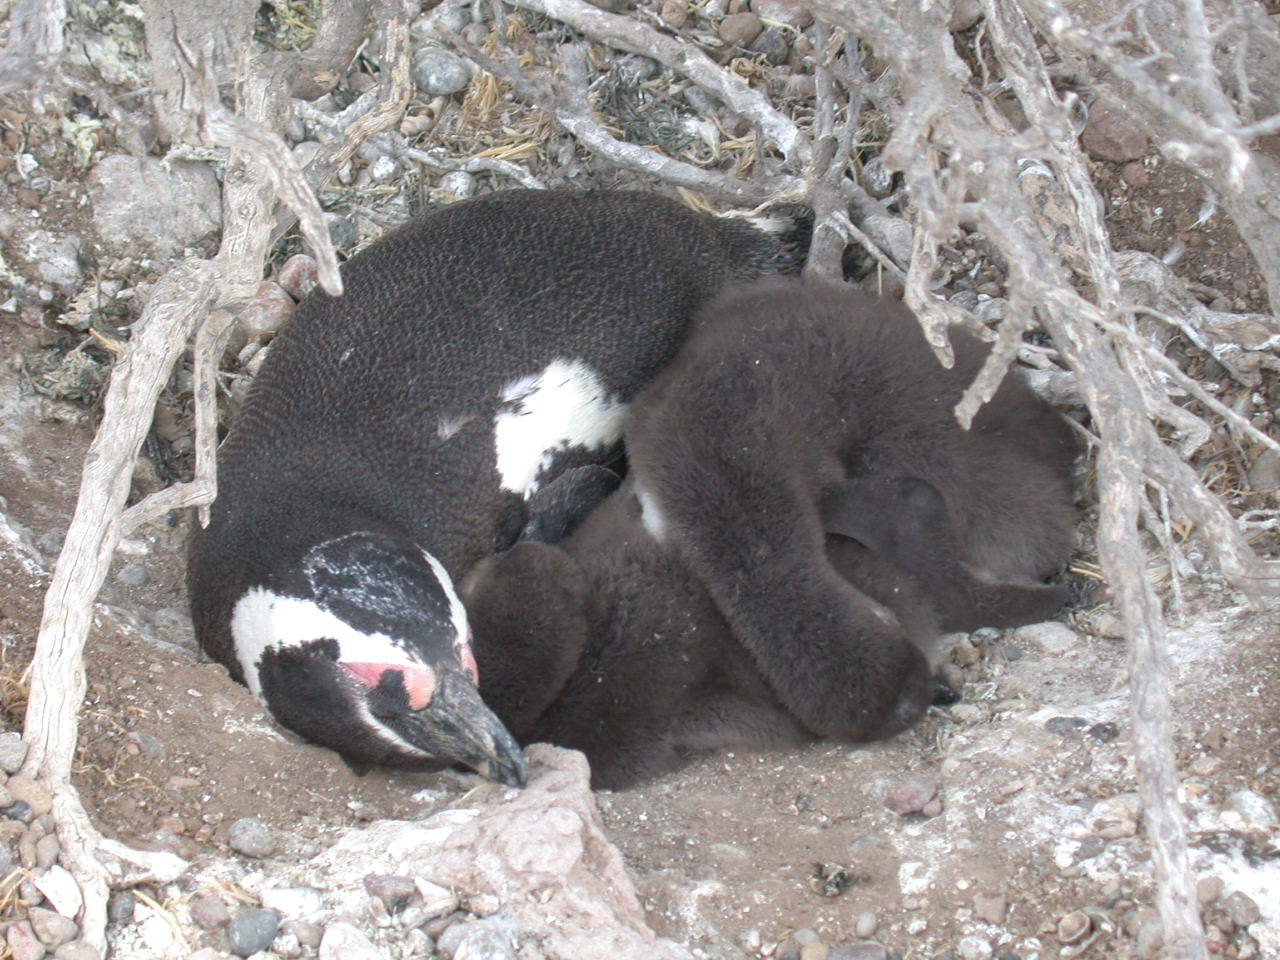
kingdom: Animalia
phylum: Chordata
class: Aves
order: Sphenisciformes
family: Spheniscidae
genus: Spheniscus
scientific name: Spheniscus magellanicus
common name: Magellanic penguin
